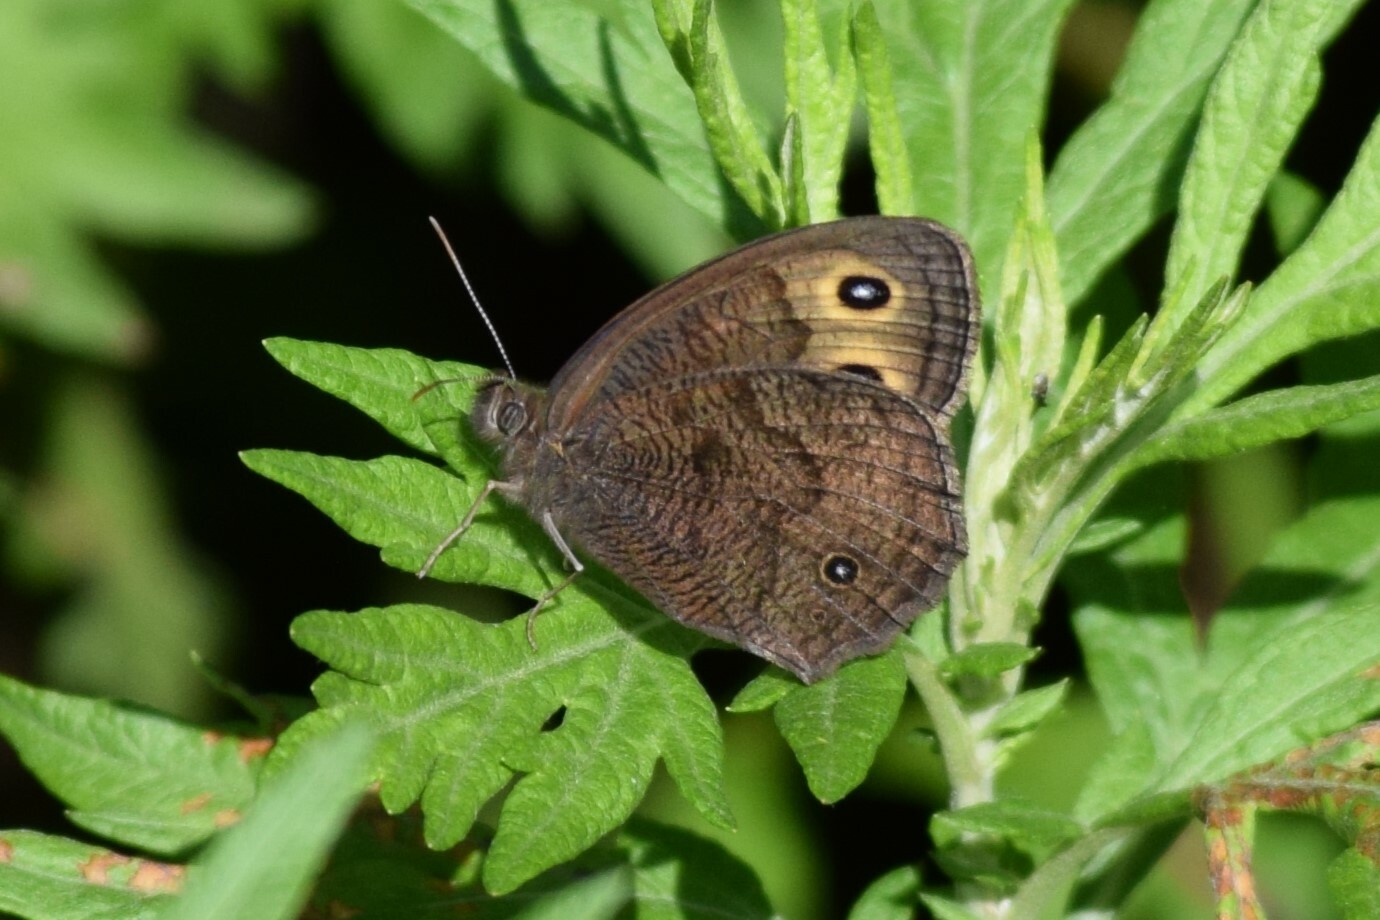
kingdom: Animalia
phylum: Arthropoda
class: Insecta
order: Lepidoptera
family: Nymphalidae
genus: Cercyonis
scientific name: Cercyonis pegala
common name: Common wood-nymph
